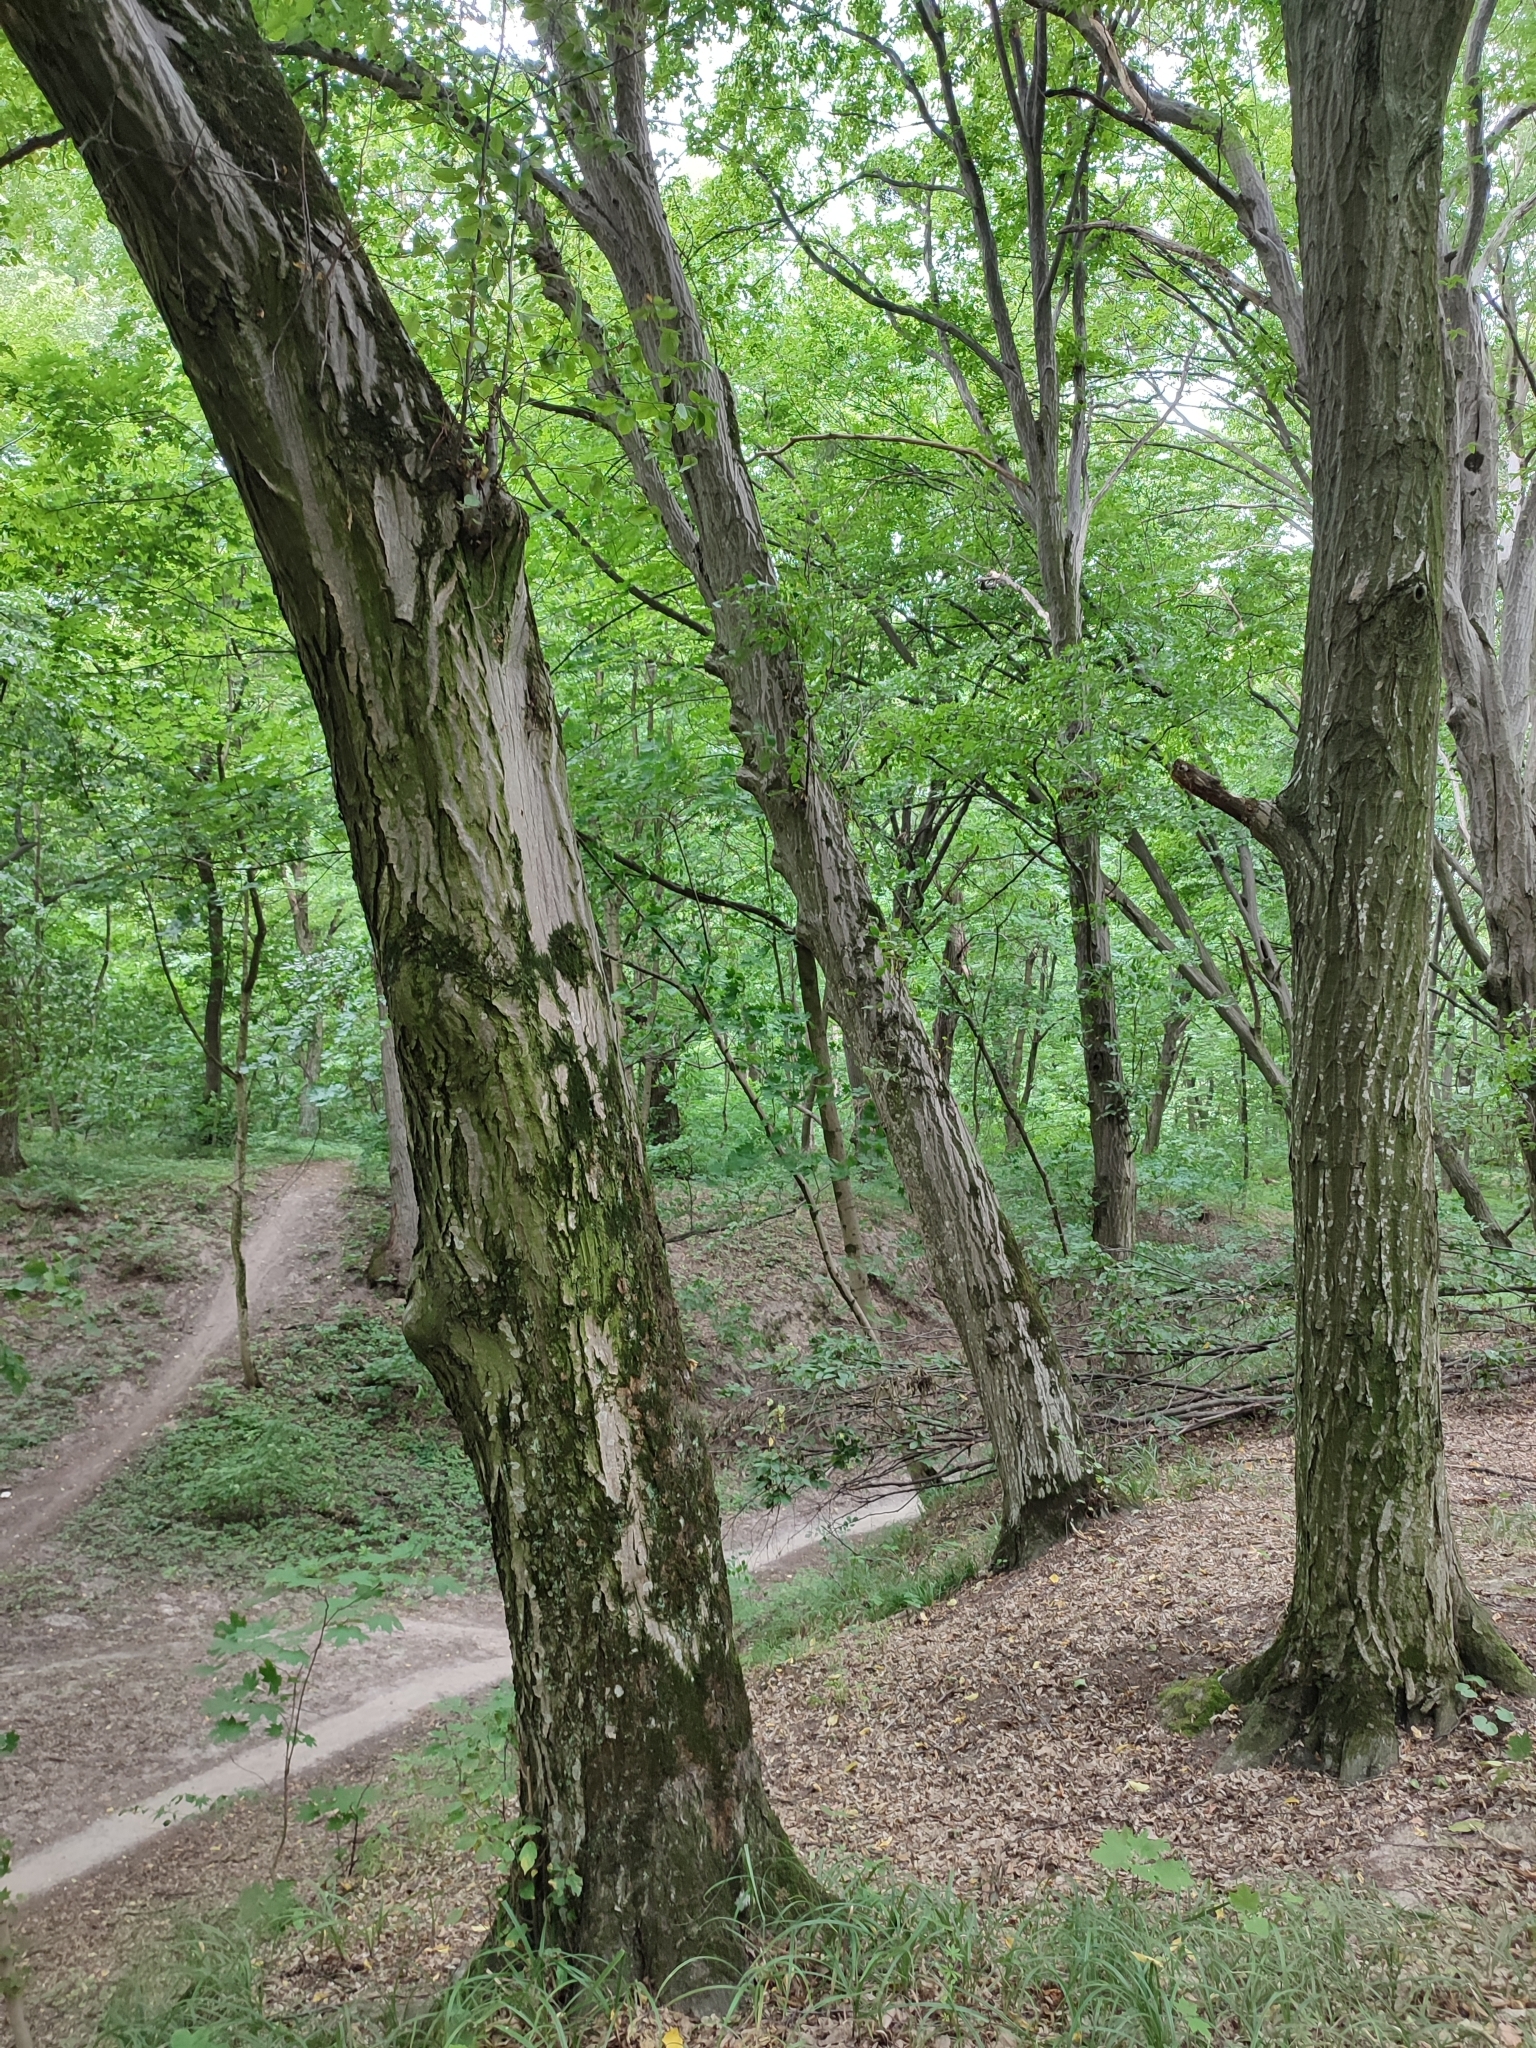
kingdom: Plantae
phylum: Tracheophyta
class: Magnoliopsida
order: Fagales
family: Betulaceae
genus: Carpinus
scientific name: Carpinus betulus
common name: Hornbeam
